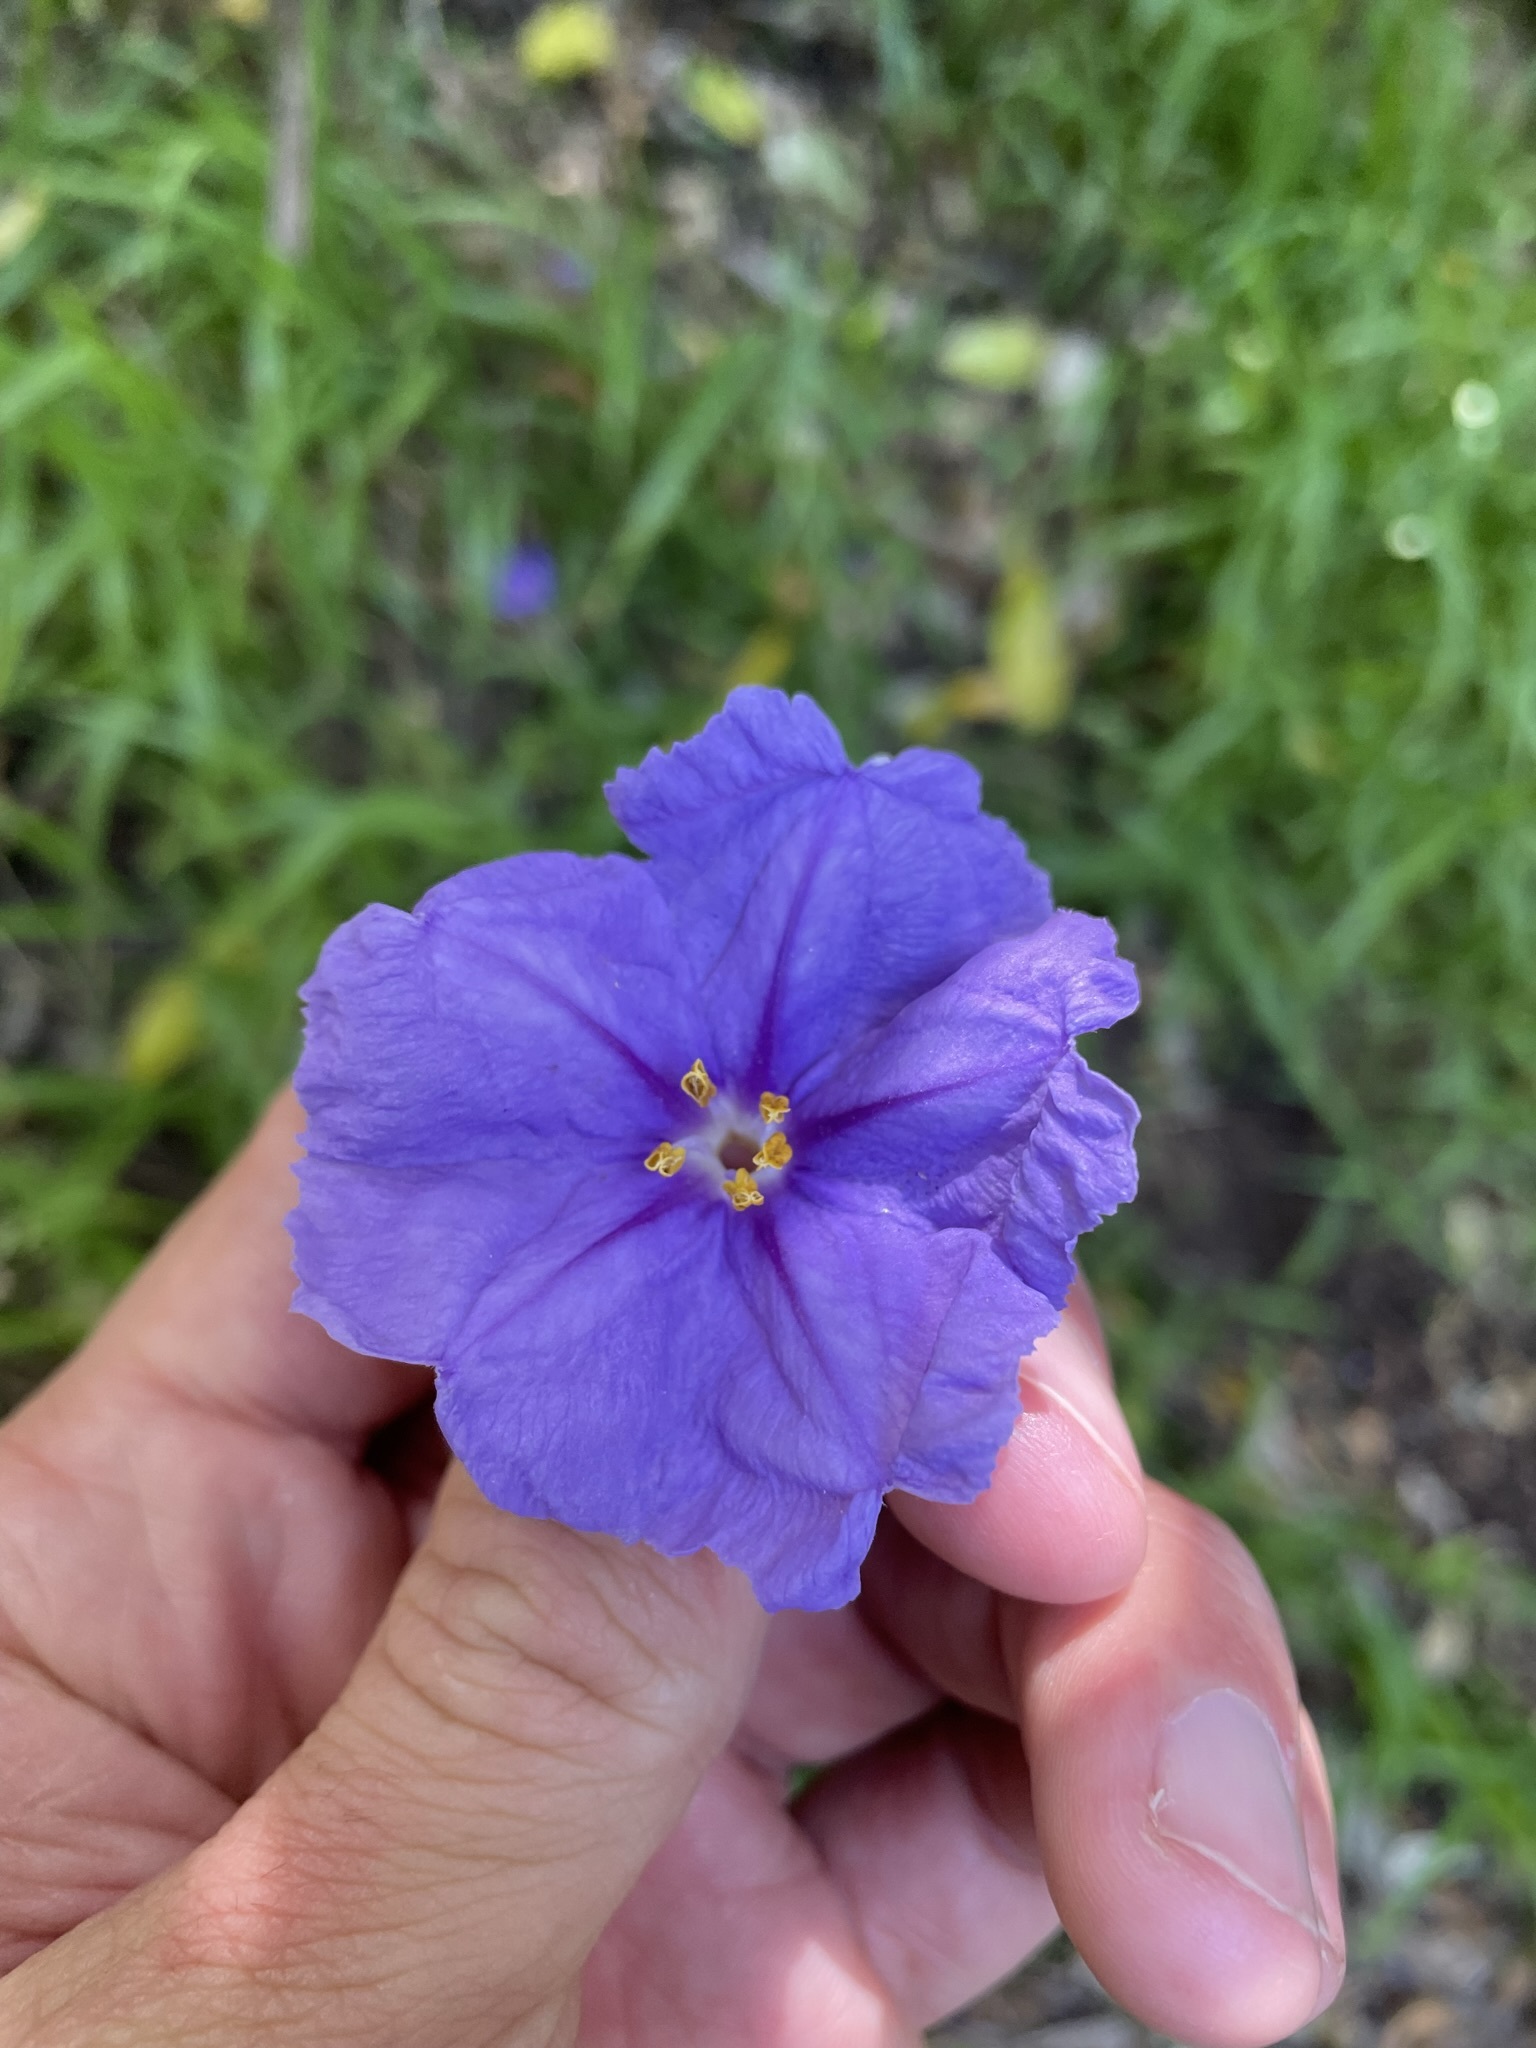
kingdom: Plantae
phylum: Tracheophyta
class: Magnoliopsida
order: Solanales
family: Solanaceae
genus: Solanum
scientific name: Solanum laciniatum
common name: Kangaroo-apple
